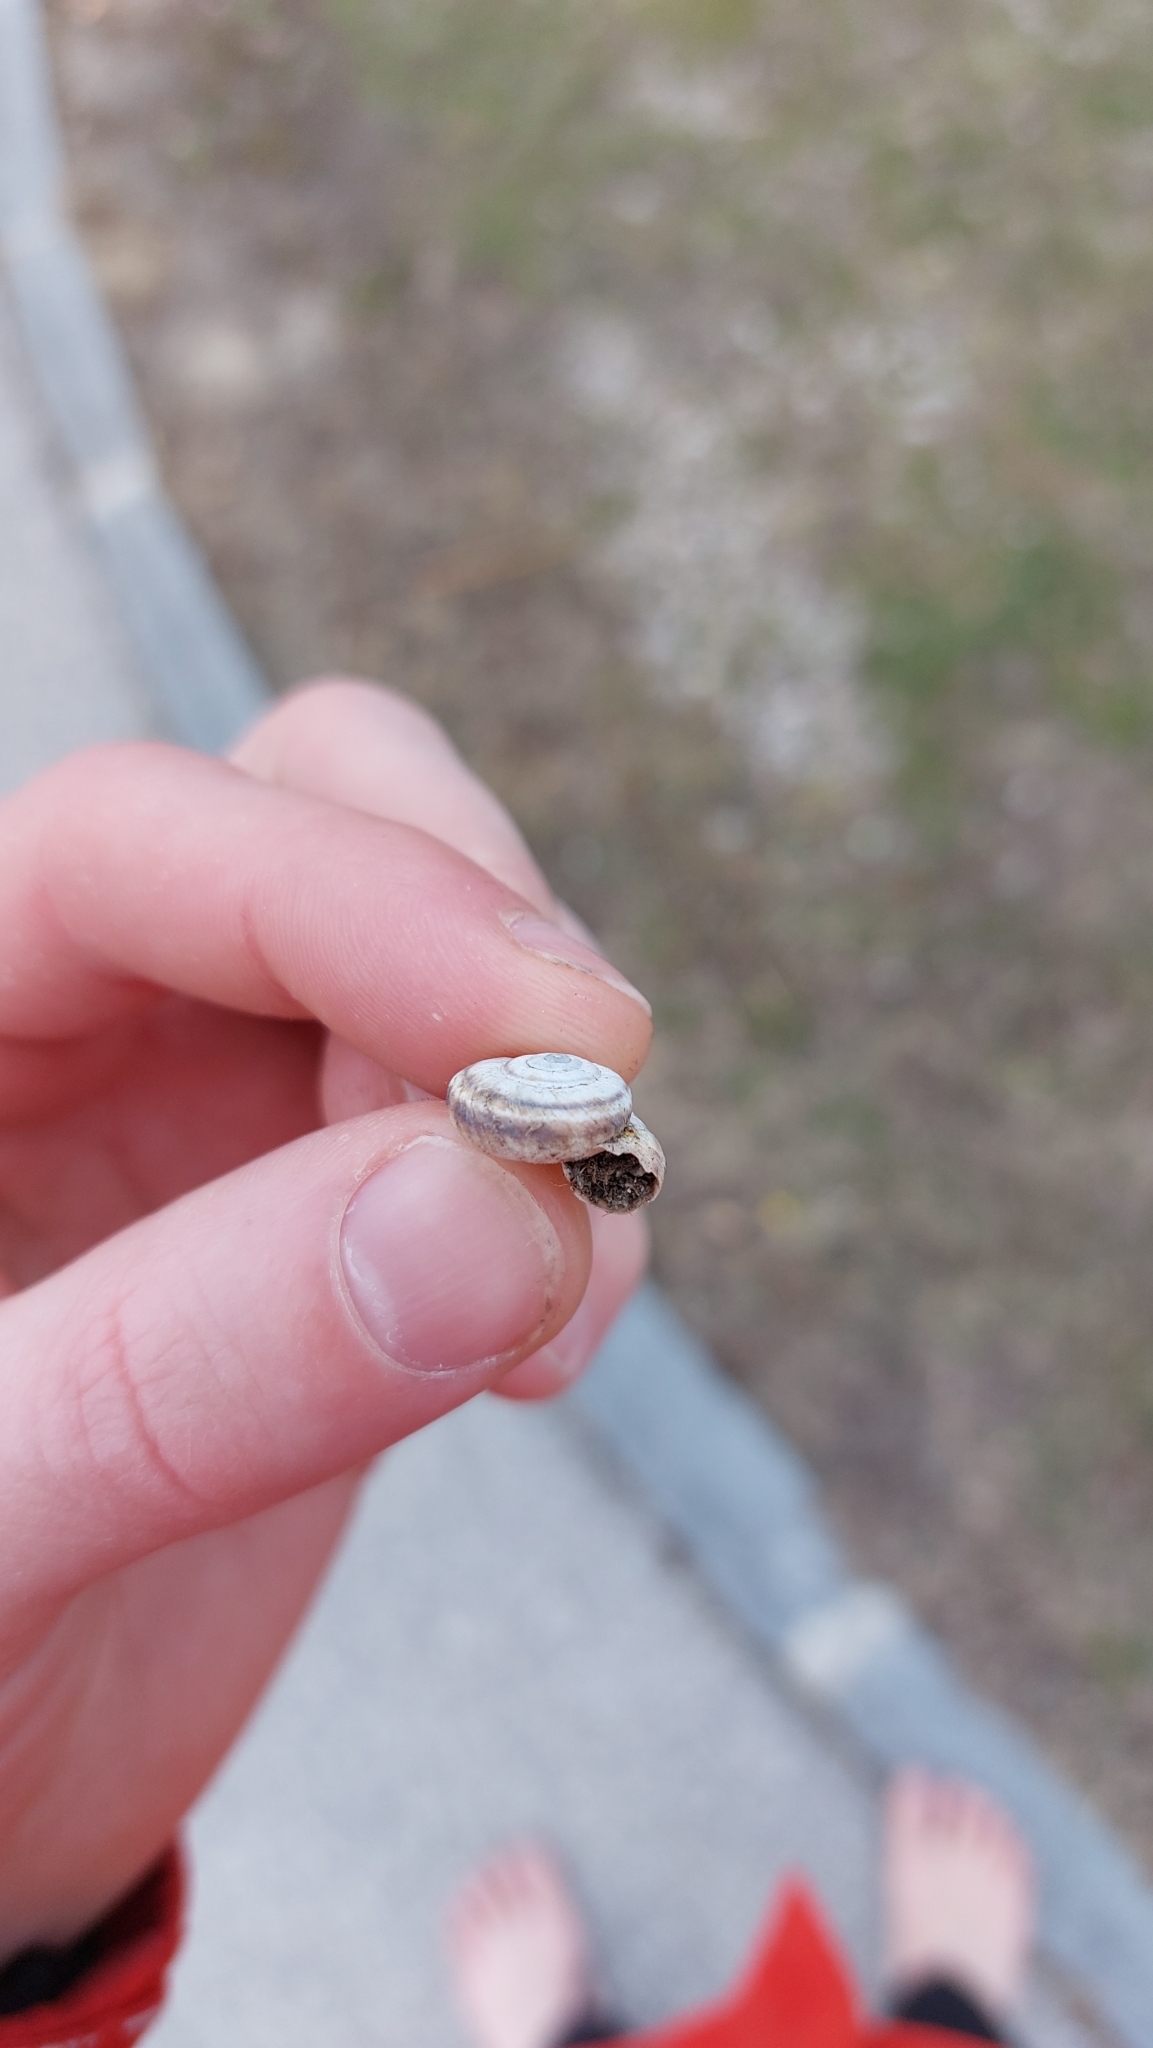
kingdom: Animalia
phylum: Mollusca
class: Gastropoda
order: Stylommatophora
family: Geomitridae
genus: Xerolenta
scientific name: Xerolenta obvia
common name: White heath snail
